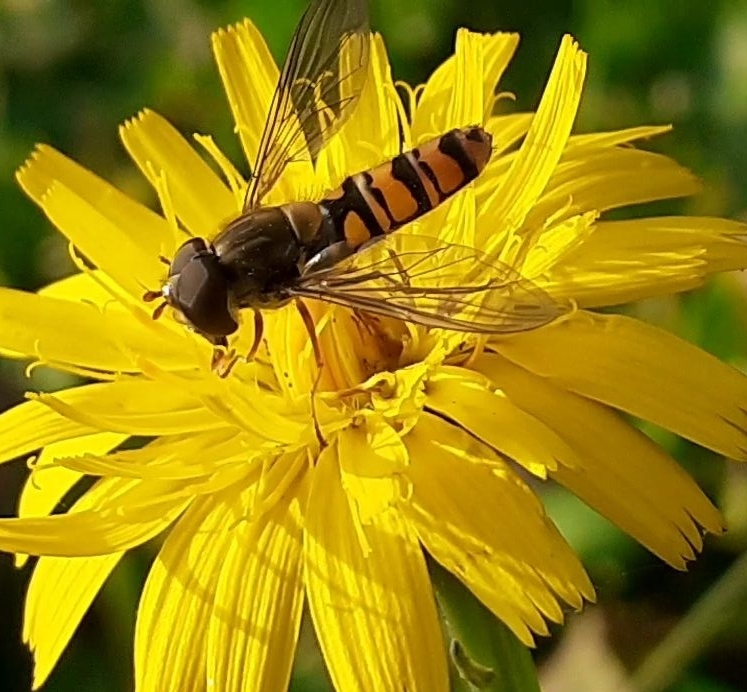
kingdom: Animalia
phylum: Arthropoda
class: Insecta
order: Diptera
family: Syrphidae
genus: Episyrphus
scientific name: Episyrphus balteatus
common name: Marmalade hoverfly
